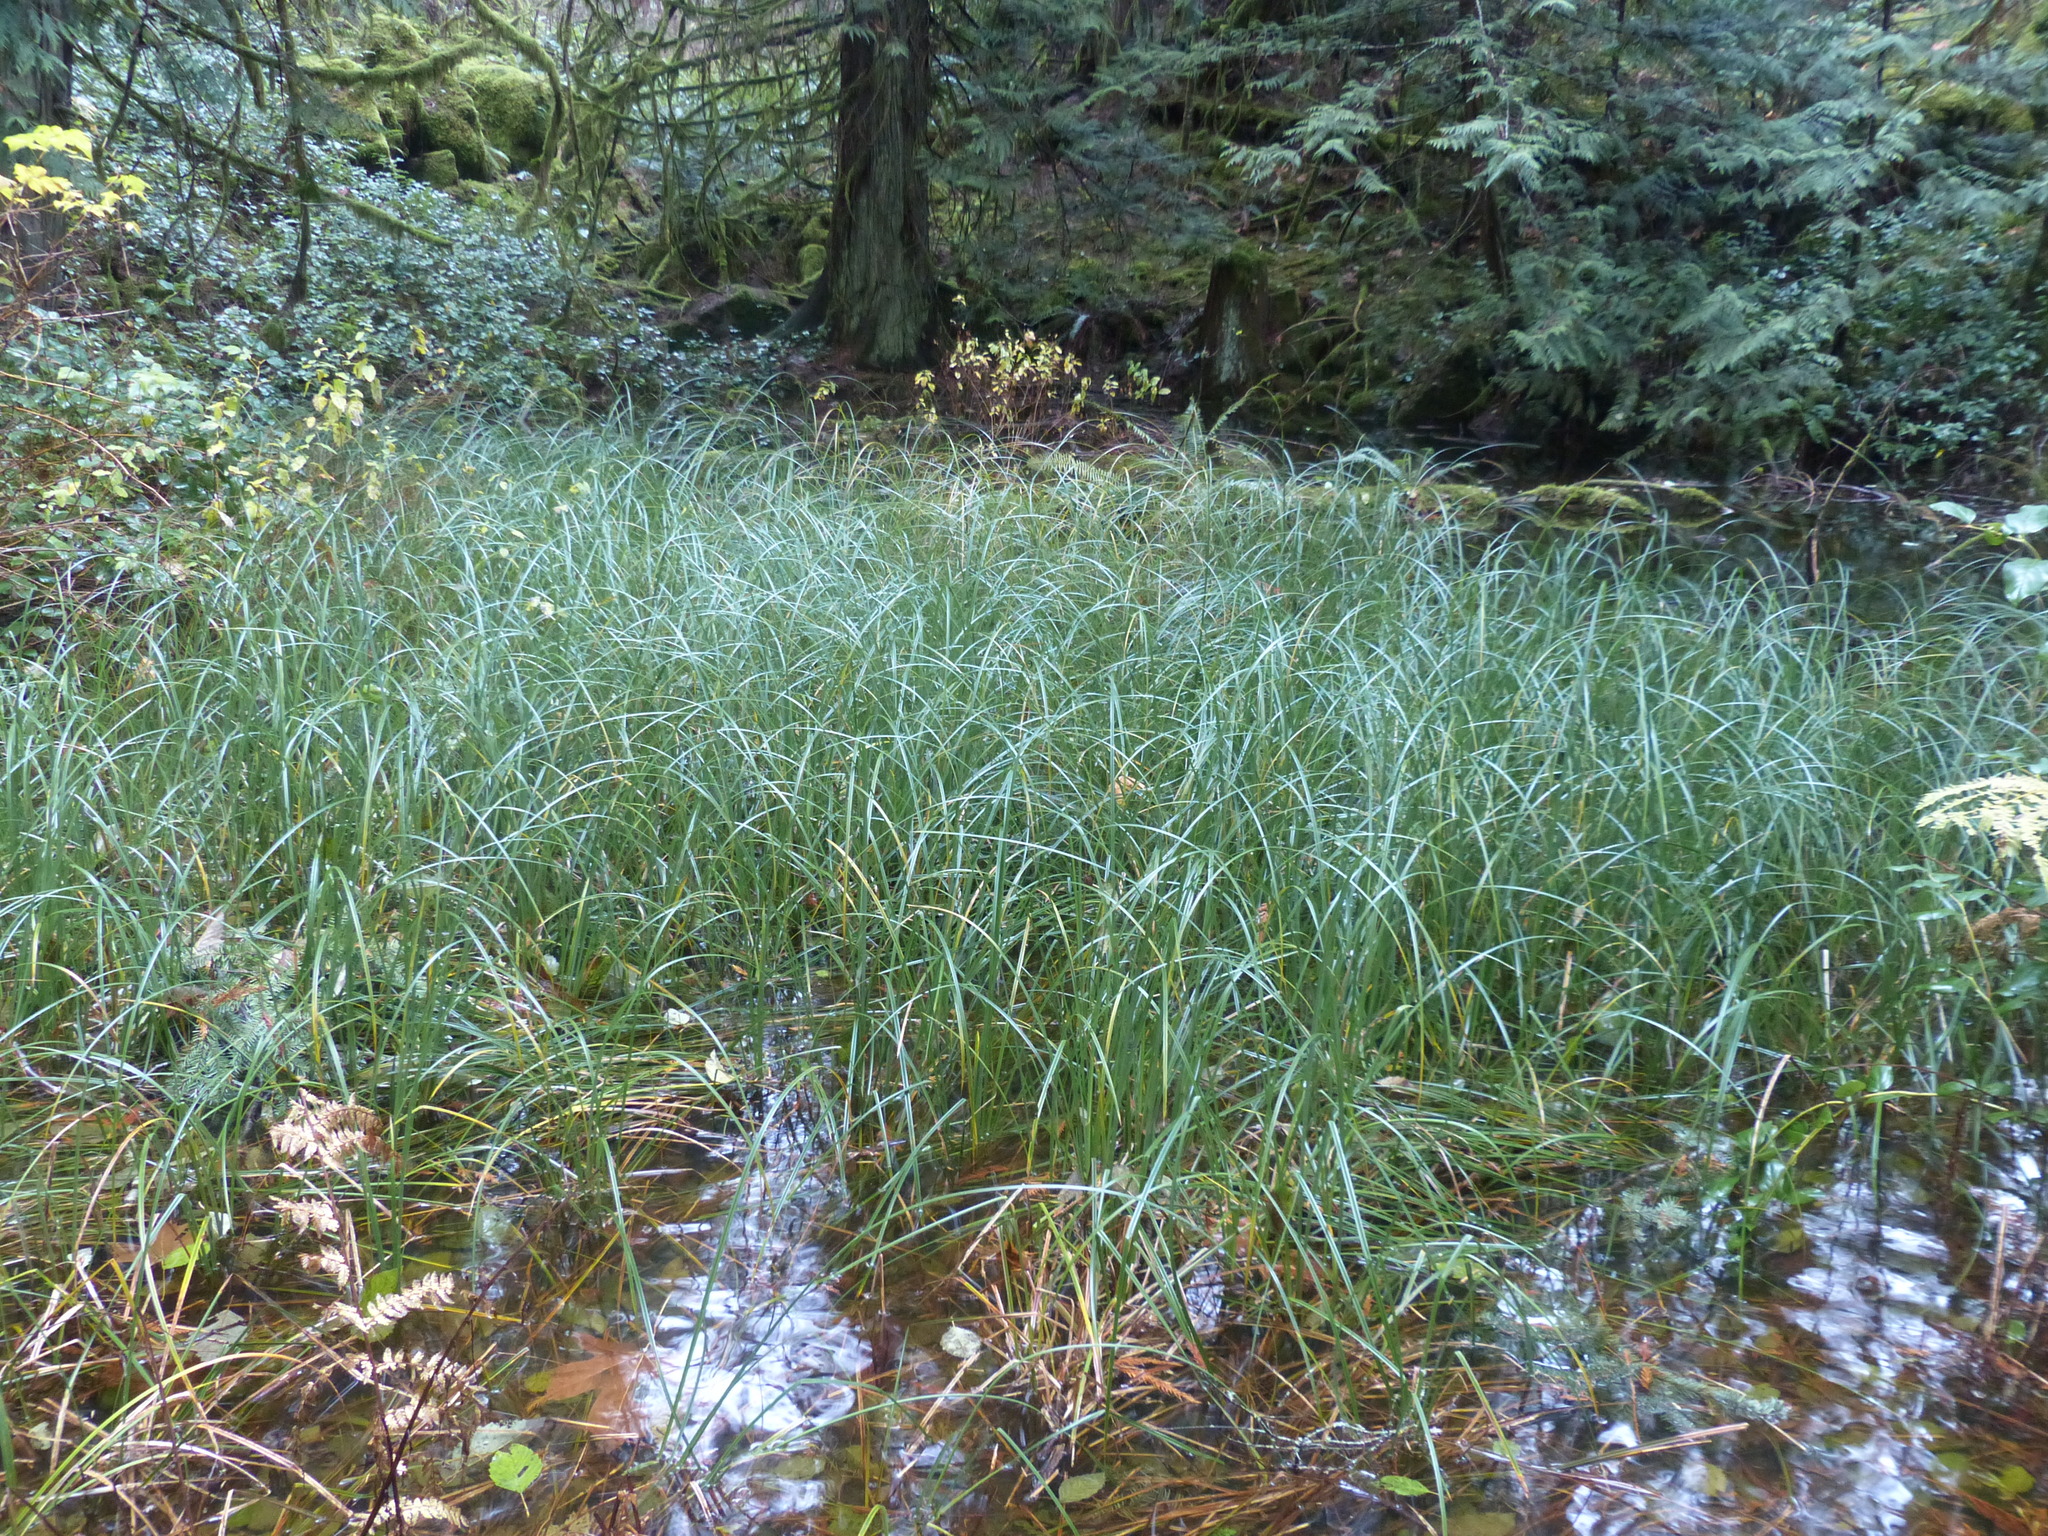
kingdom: Plantae
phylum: Tracheophyta
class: Liliopsida
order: Poales
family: Cyperaceae
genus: Carex
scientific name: Carex obnupta
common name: Slough sedge
